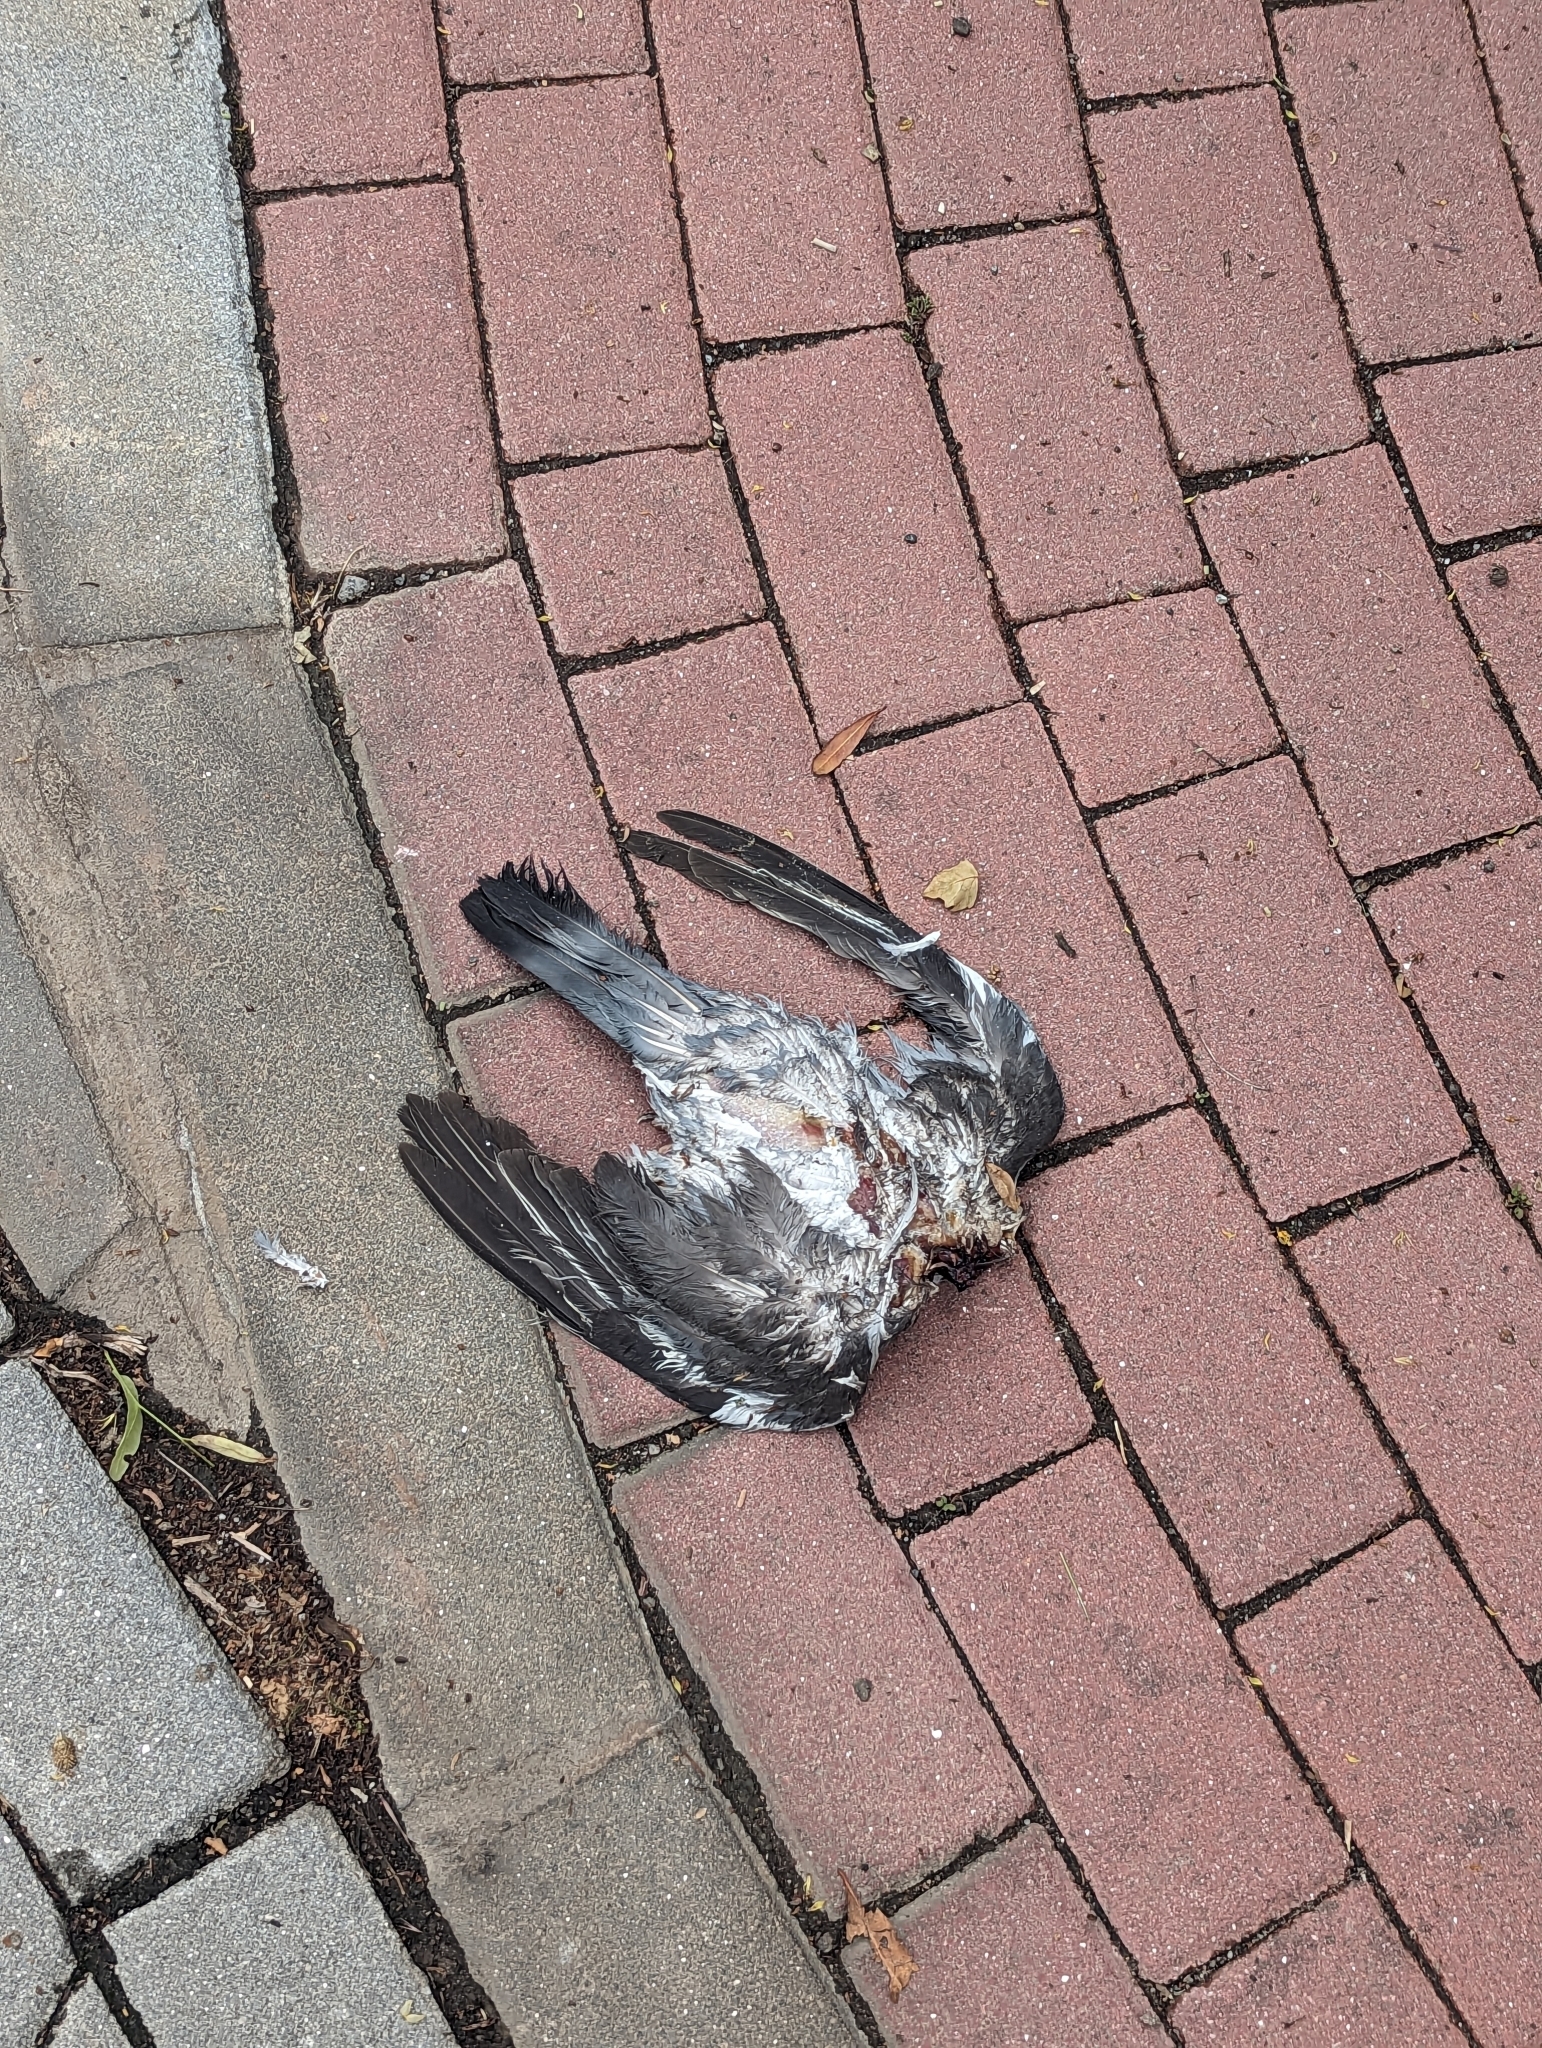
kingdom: Animalia
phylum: Chordata
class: Aves
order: Columbiformes
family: Columbidae
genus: Columba
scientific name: Columba palumbus
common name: Common wood pigeon
